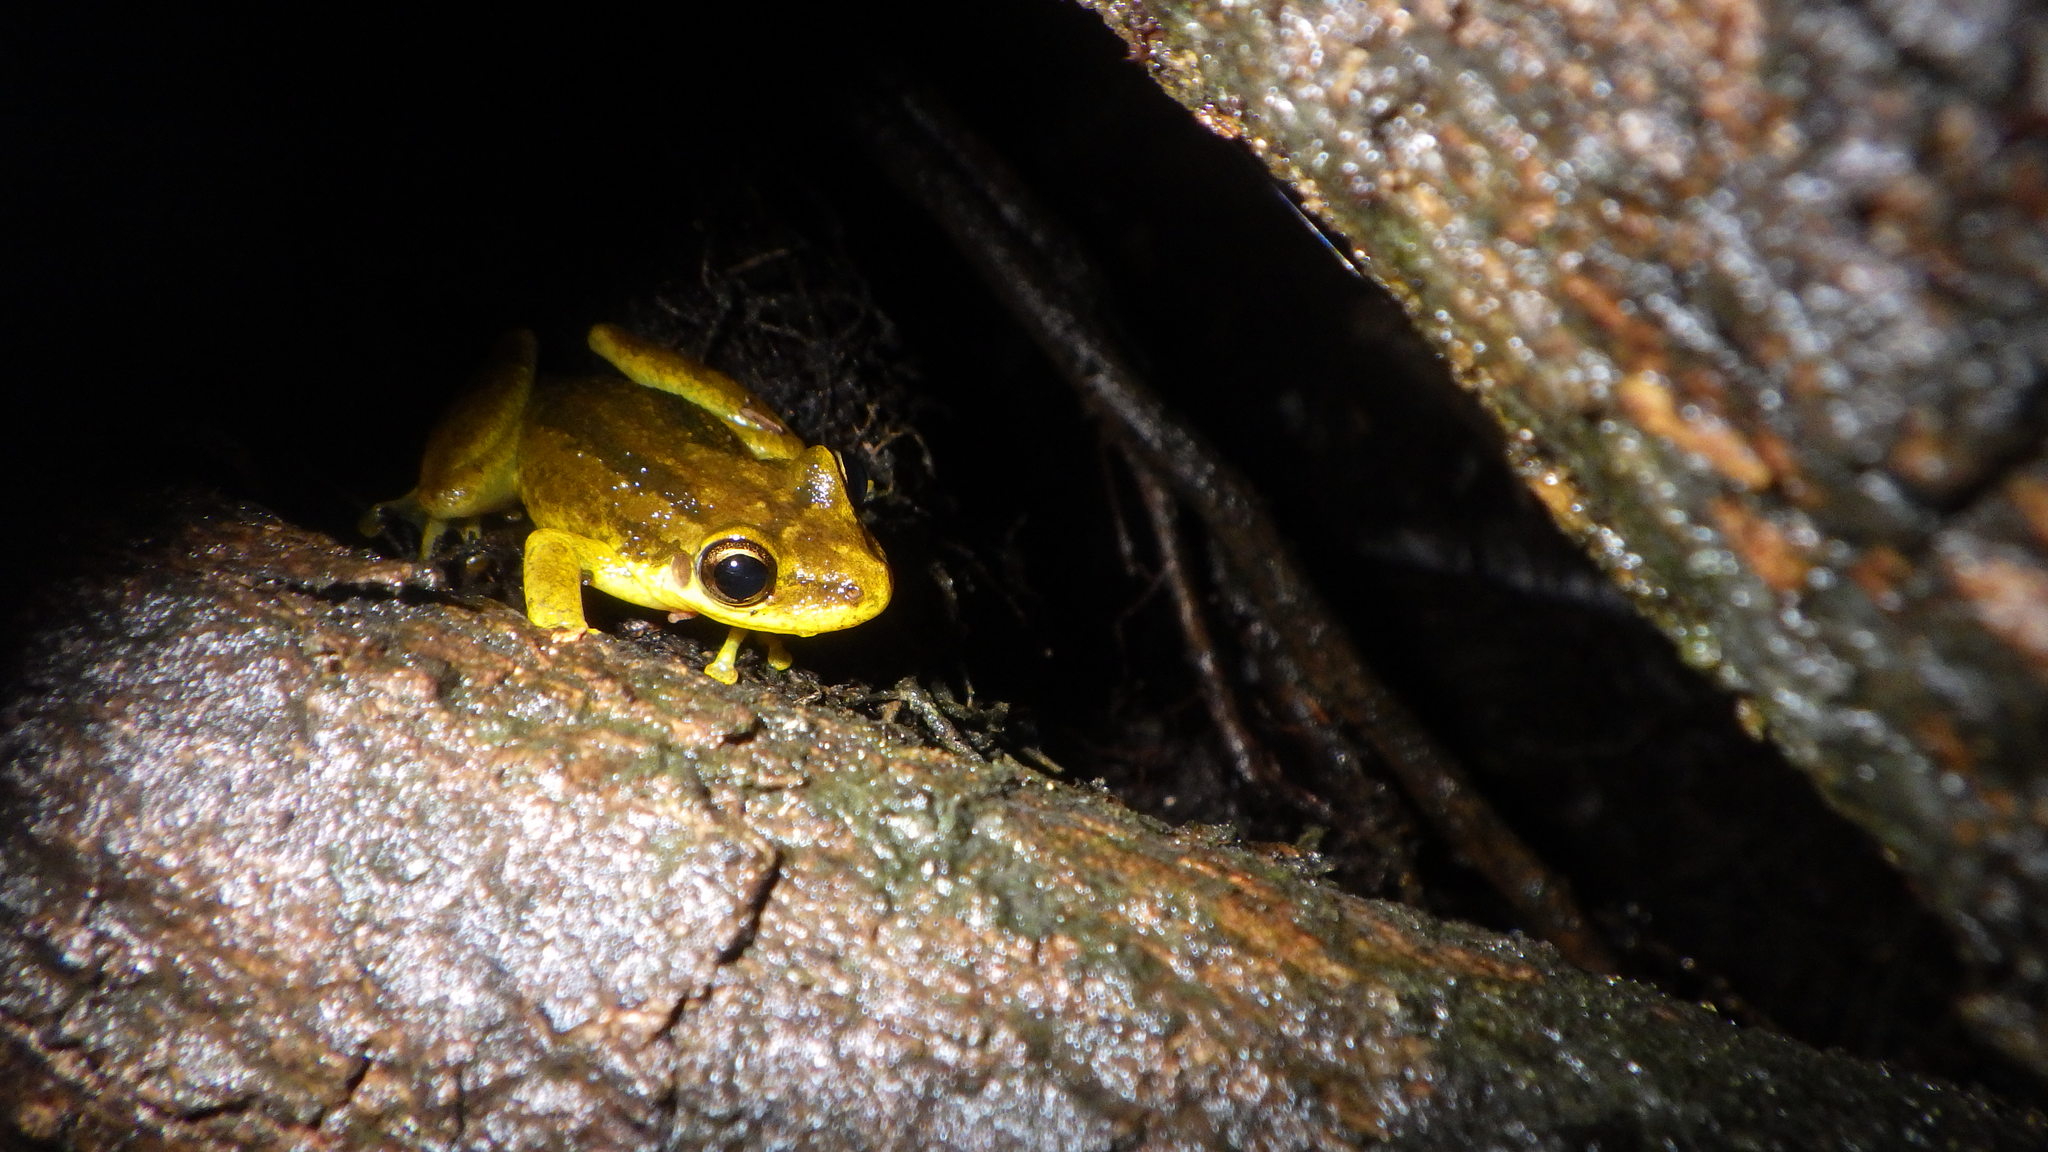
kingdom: Animalia
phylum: Chordata
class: Amphibia
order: Anura
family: Hylidae
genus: Scinax
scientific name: Scinax ruber
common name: Red snouted treefrog
